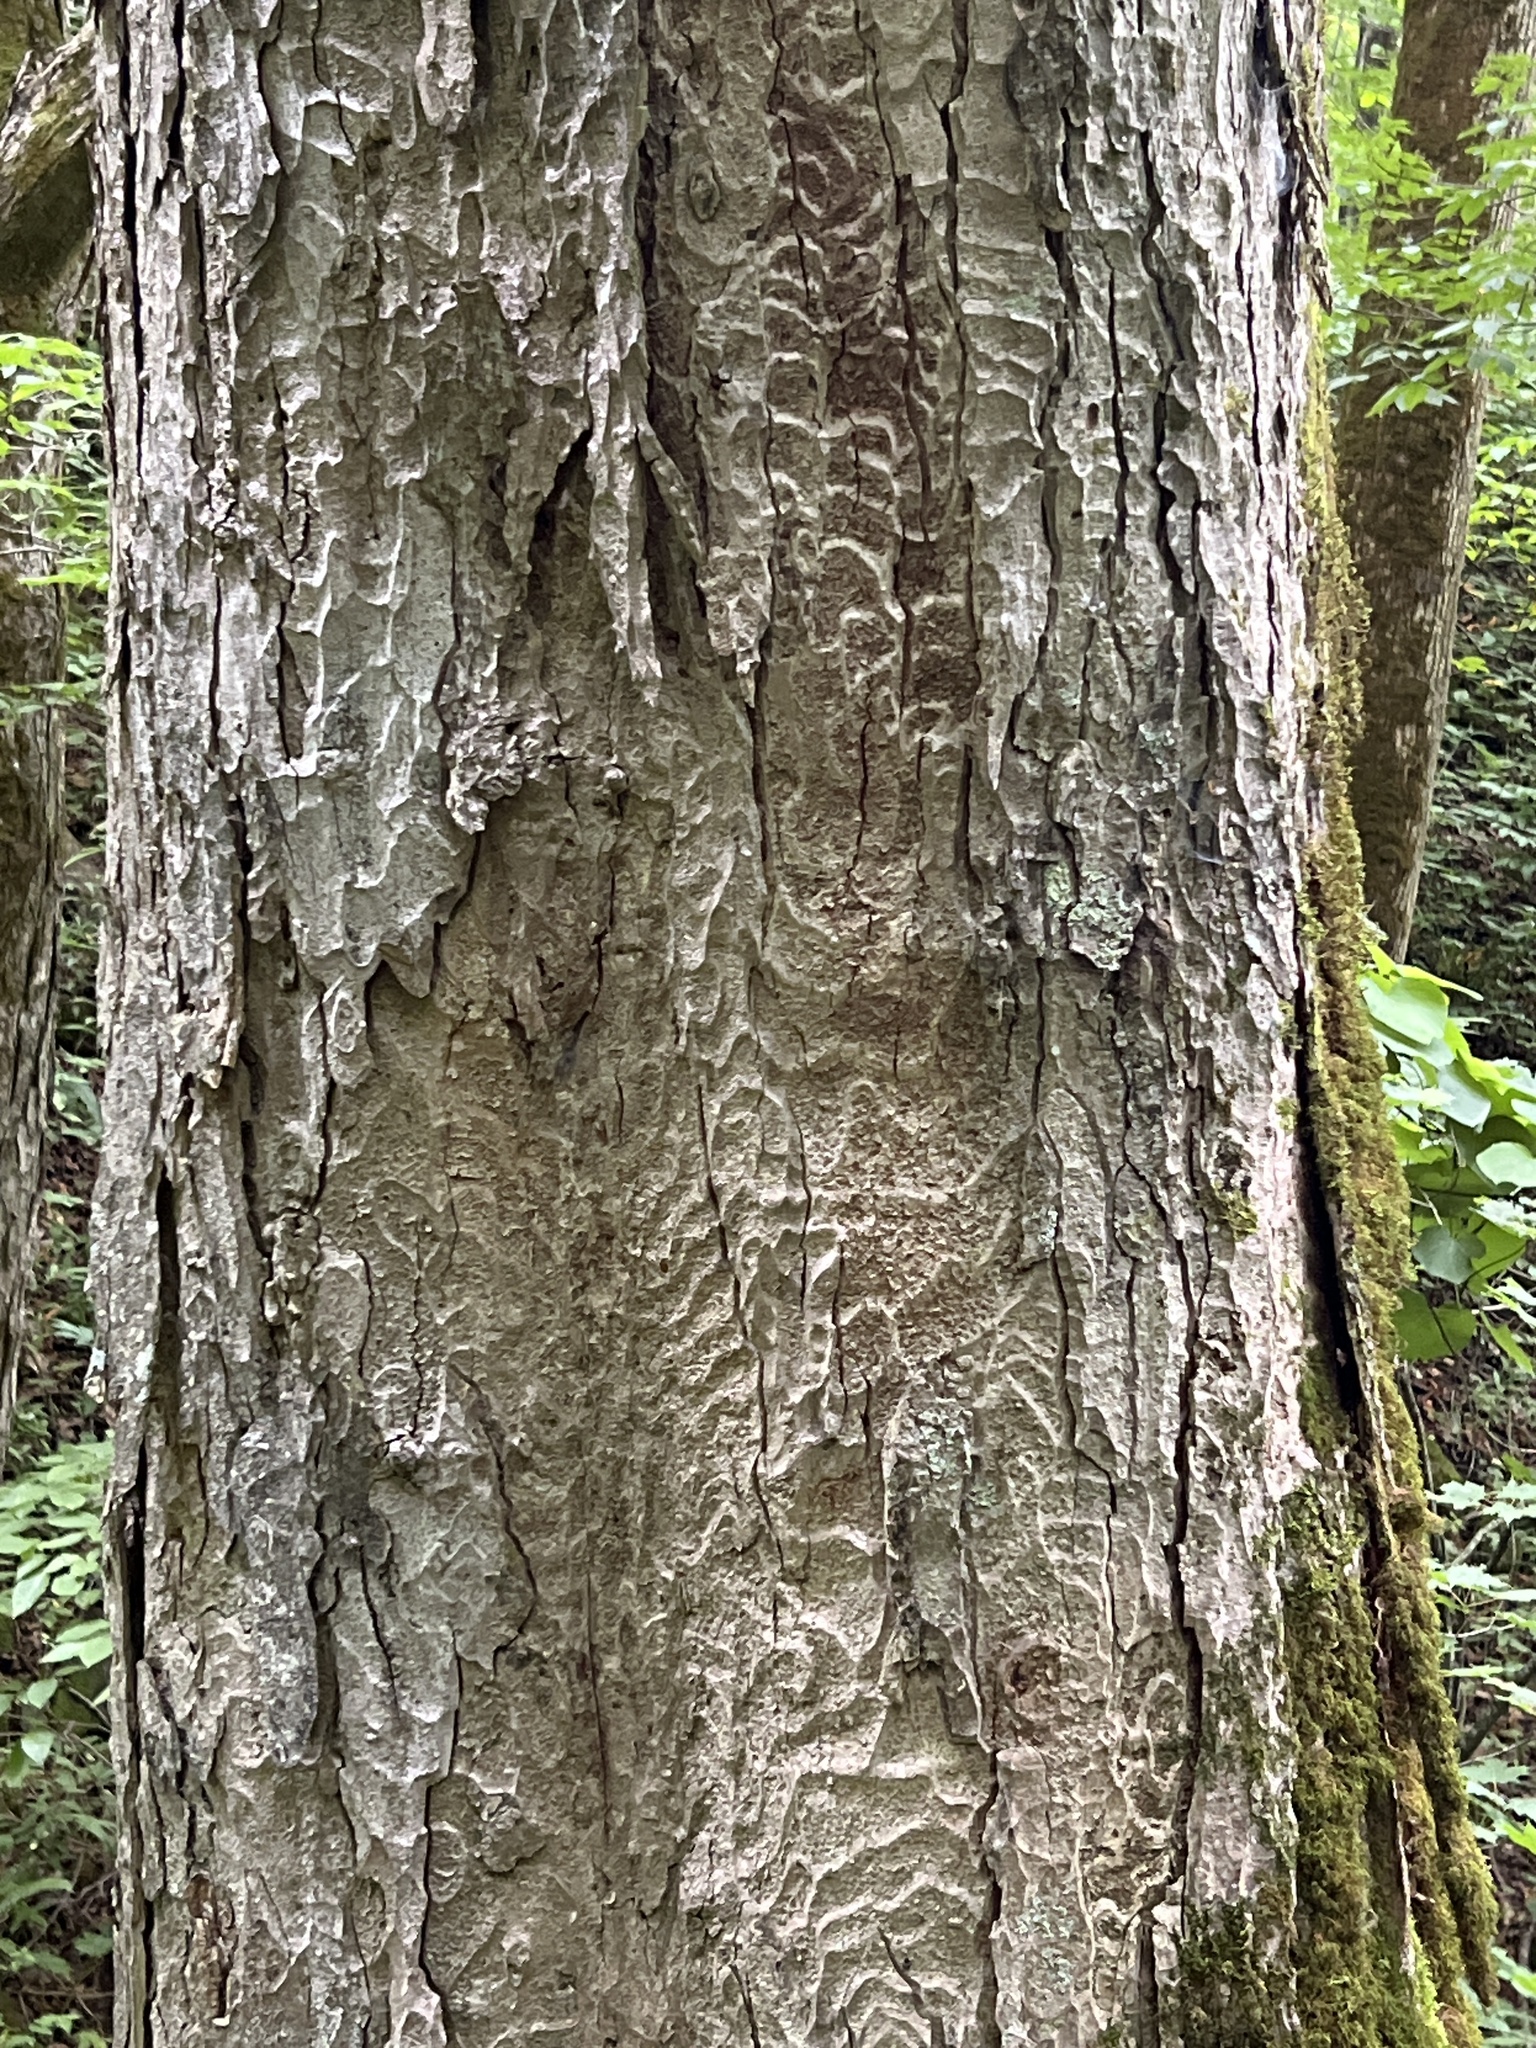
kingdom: Plantae
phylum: Tracheophyta
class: Magnoliopsida
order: Sapindales
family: Sapindaceae
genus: Aesculus
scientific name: Aesculus flava
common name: Yellow buckeye
